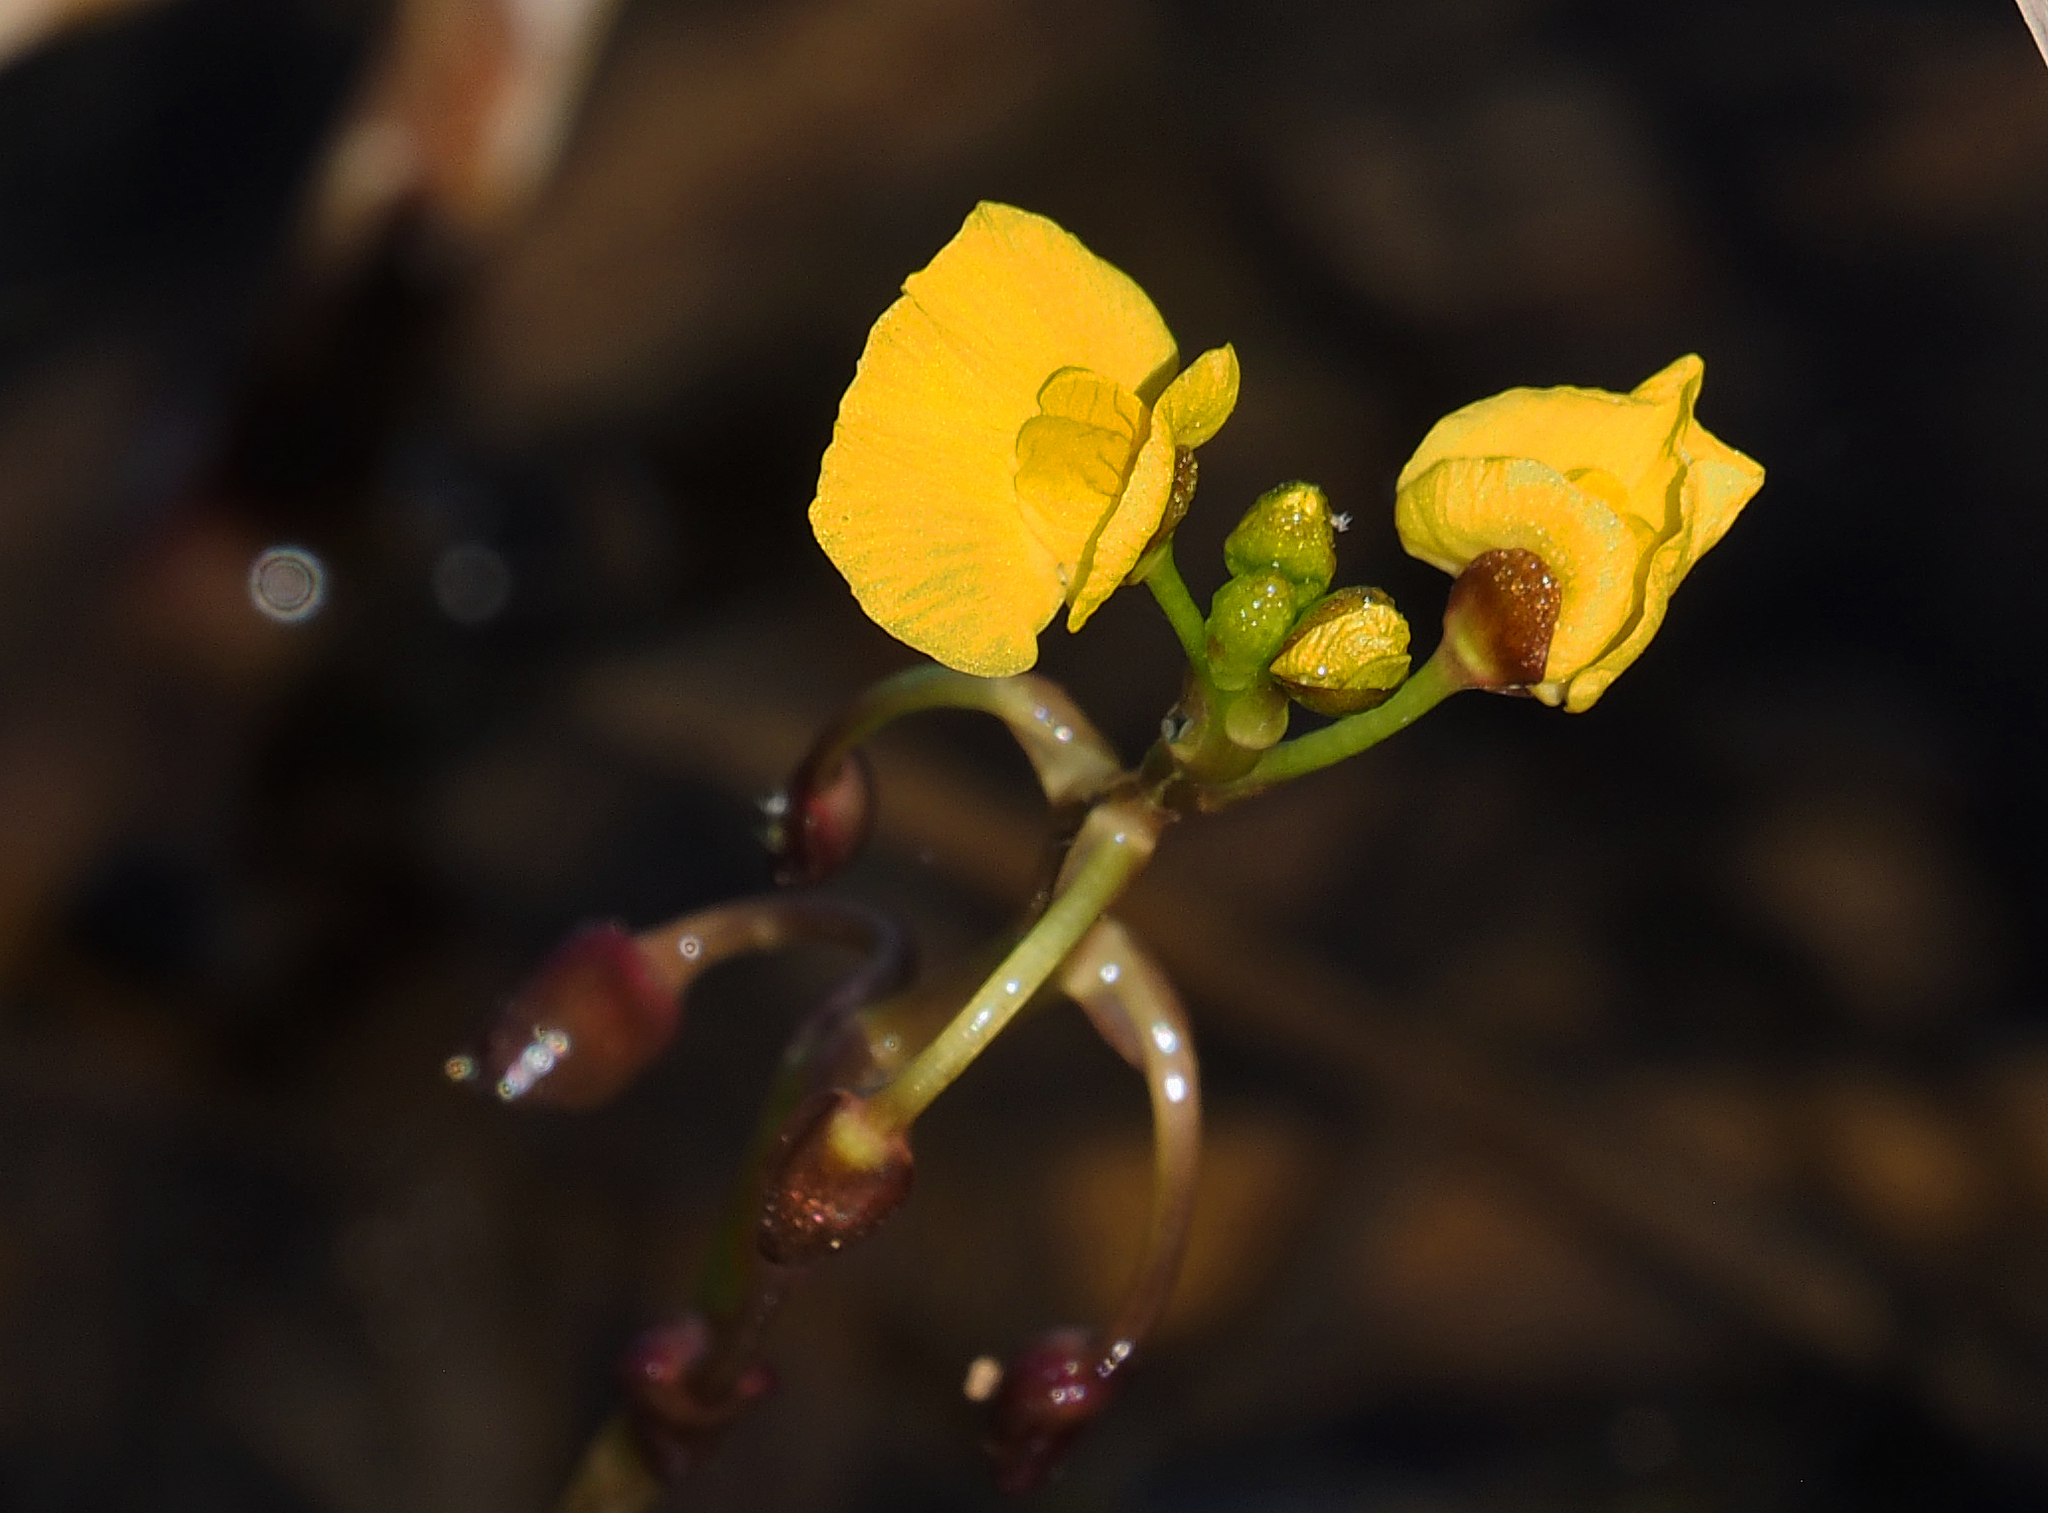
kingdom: Plantae
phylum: Tracheophyta
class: Magnoliopsida
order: Lamiales
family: Lentibulariaceae
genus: Utricularia
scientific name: Utricularia foliosa
